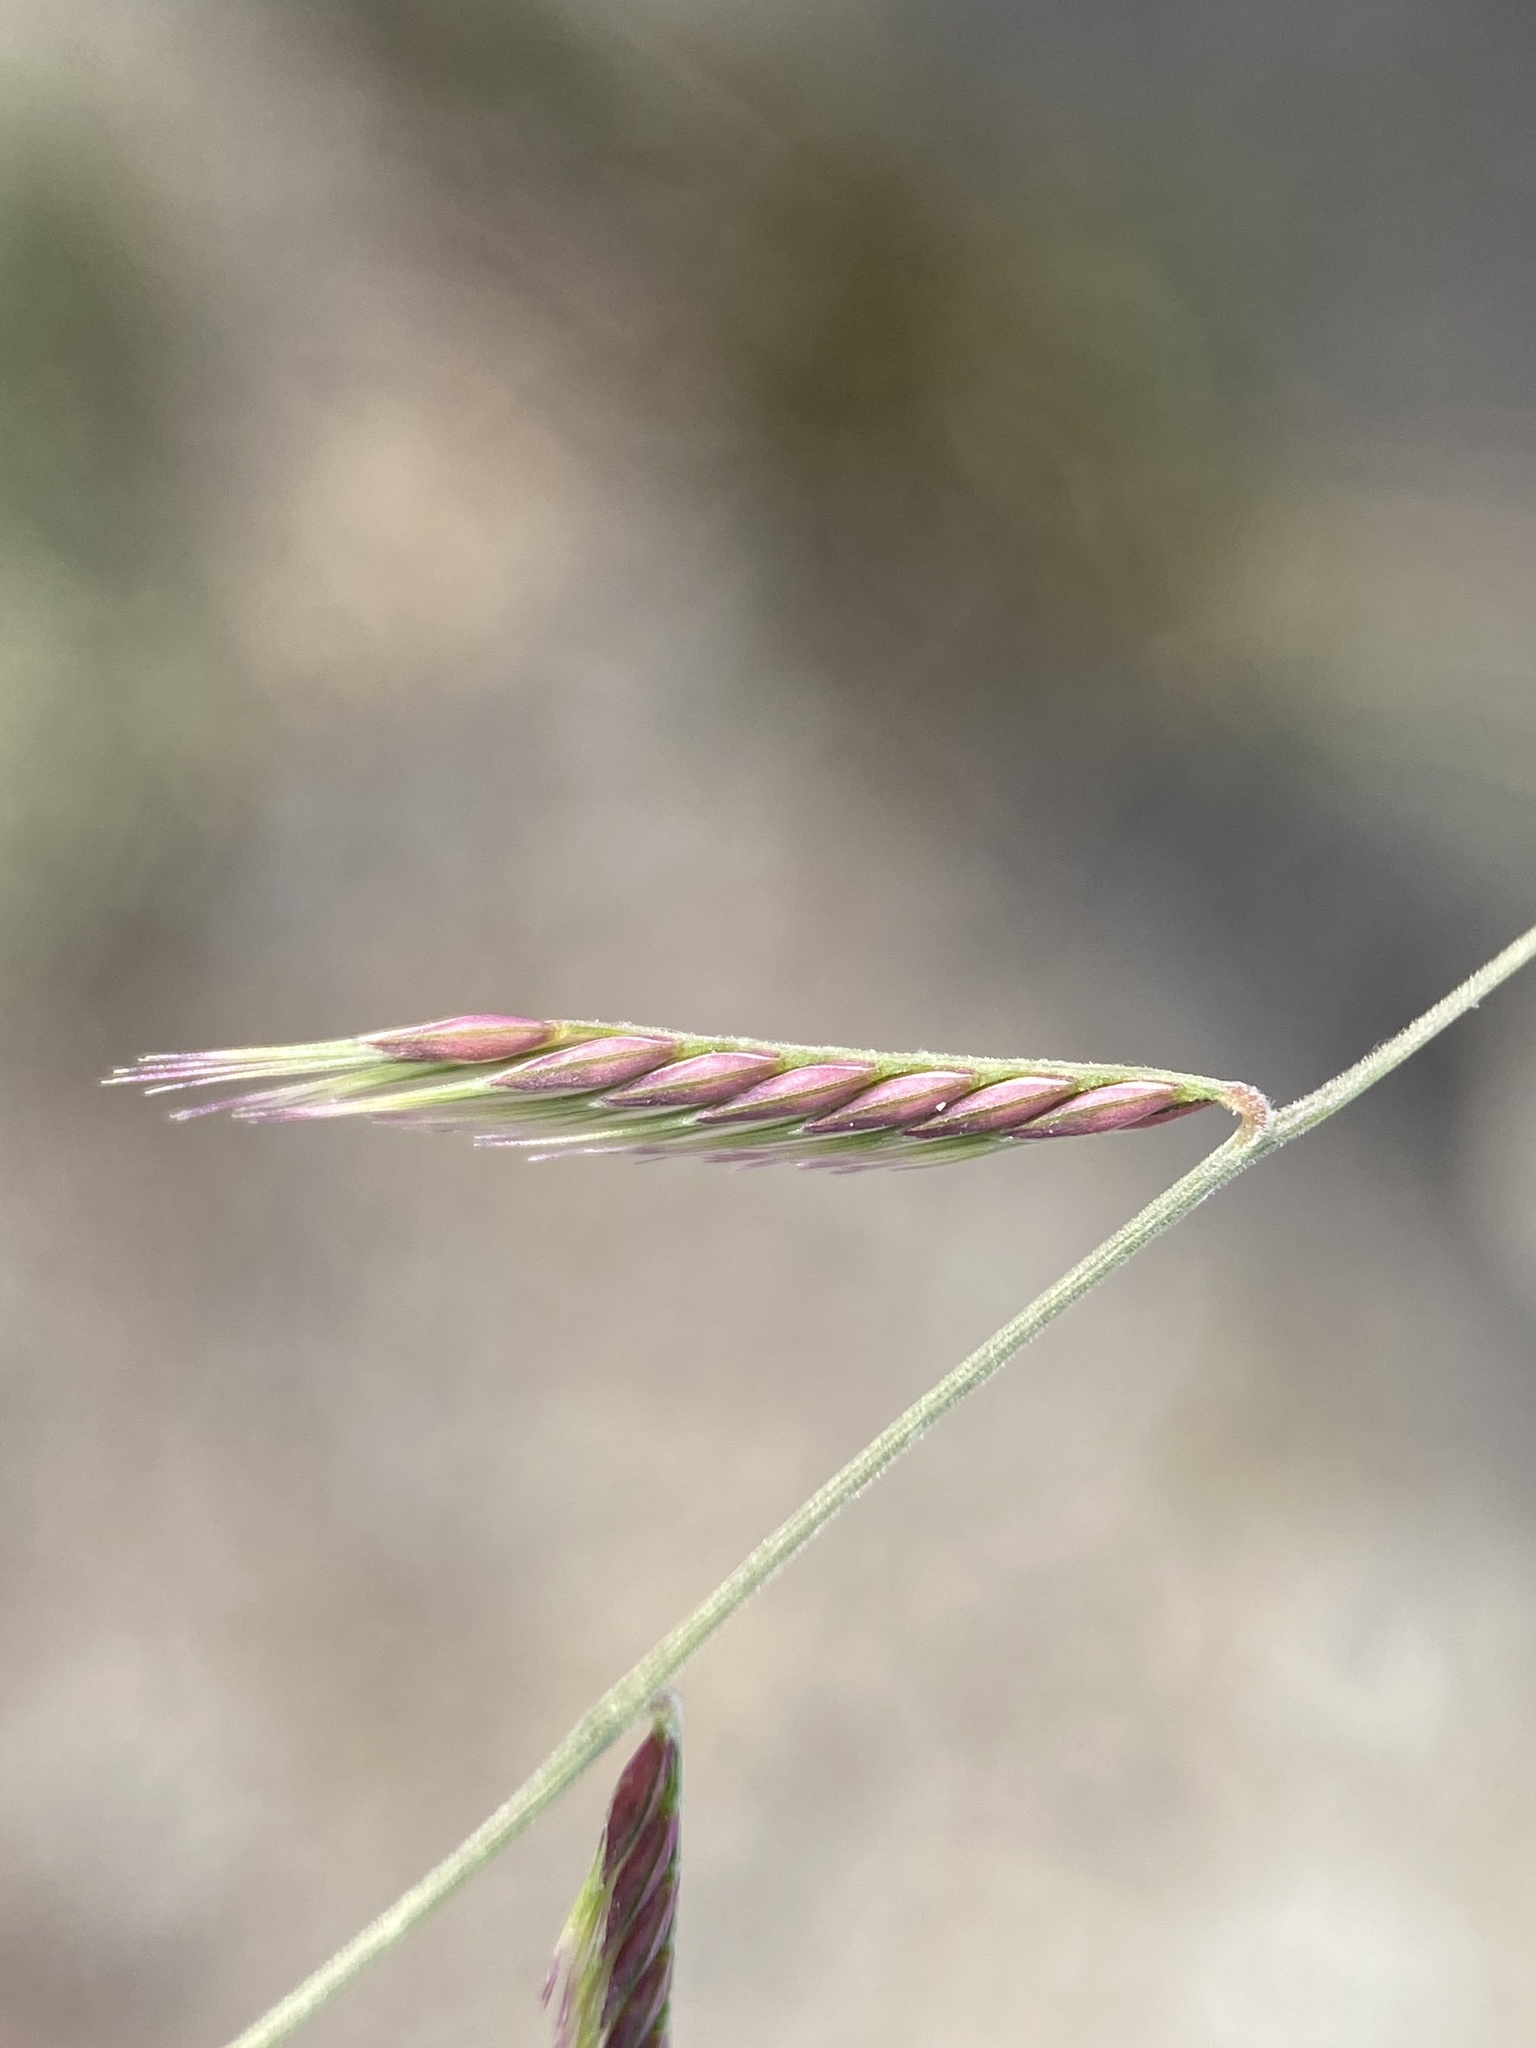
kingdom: Plantae
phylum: Tracheophyta
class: Liliopsida
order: Poales
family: Poaceae
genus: Bouteloua
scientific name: Bouteloua trifida
